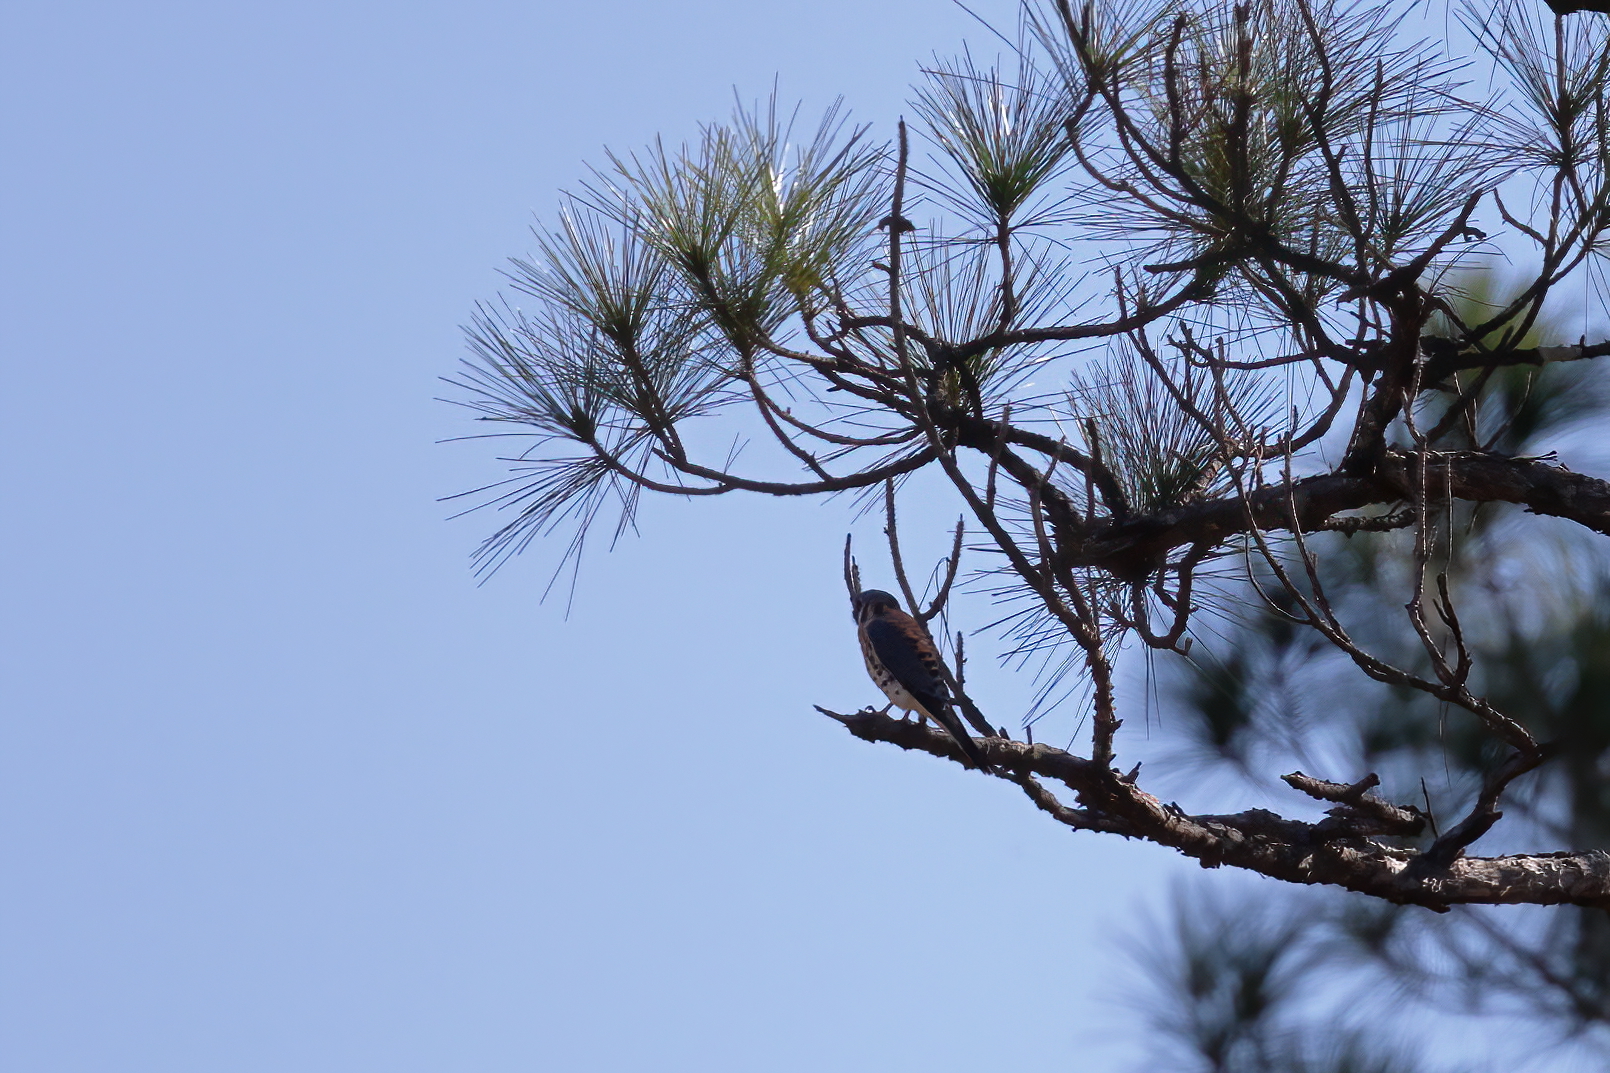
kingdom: Animalia
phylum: Chordata
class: Aves
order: Falconiformes
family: Falconidae
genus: Falco
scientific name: Falco sparverius
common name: American kestrel
